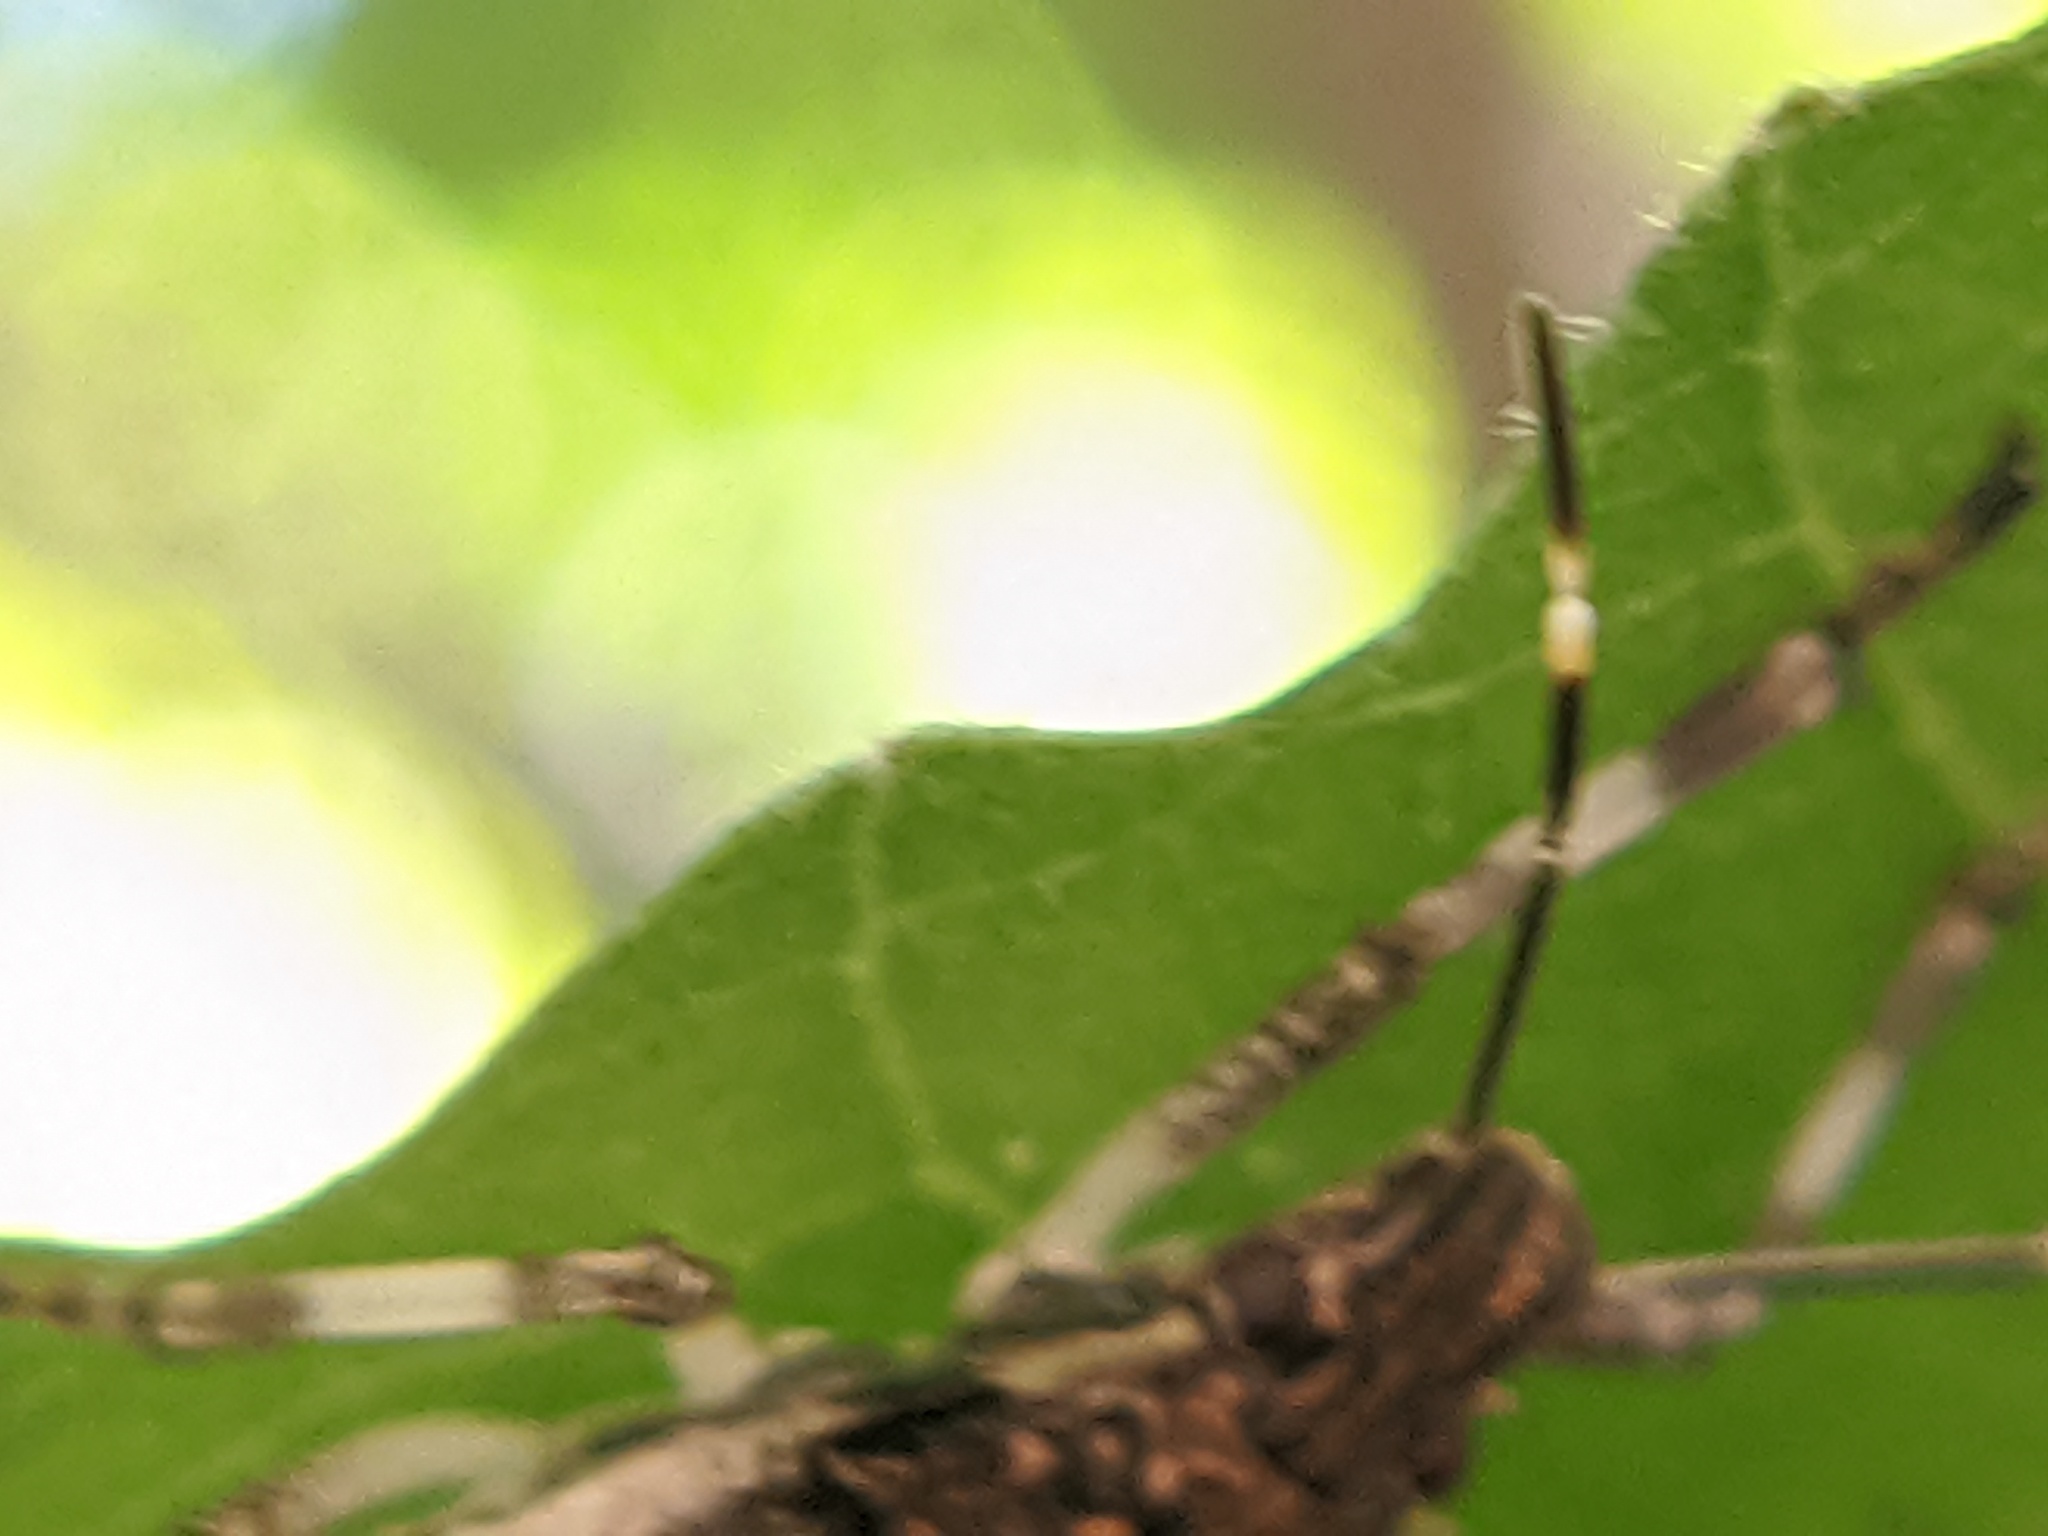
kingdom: Animalia
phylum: Arthropoda
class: Insecta
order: Hemiptera
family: Pentatomidae
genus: Halyomorpha
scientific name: Halyomorpha halys
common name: Brown marmorated stink bug
